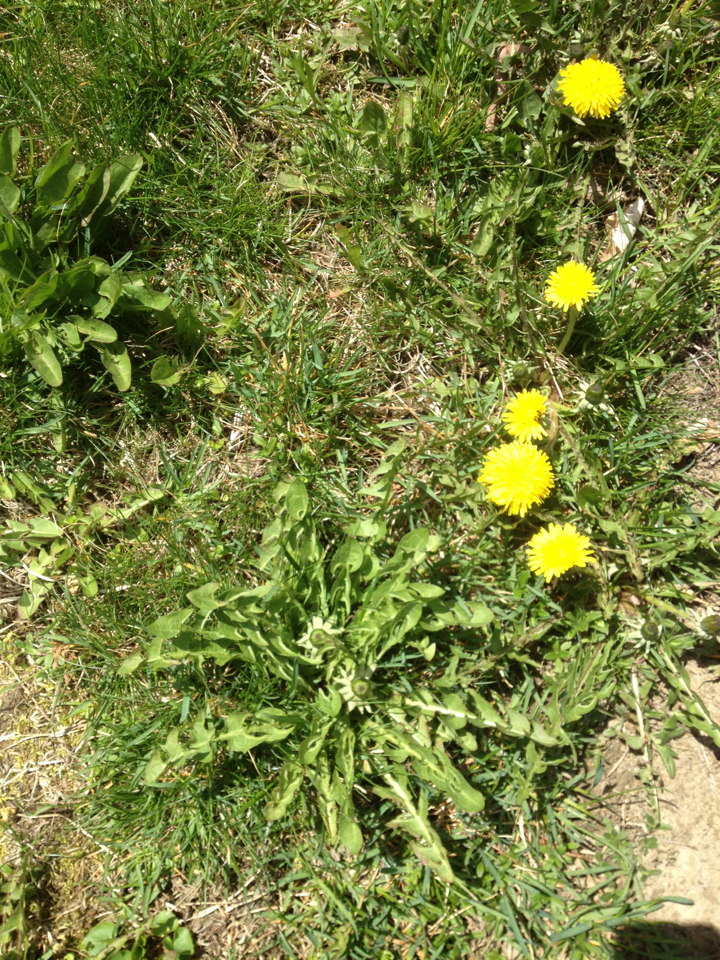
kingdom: Plantae
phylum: Tracheophyta
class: Magnoliopsida
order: Asterales
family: Asteraceae
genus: Taraxacum
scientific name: Taraxacum officinale
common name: Common dandelion
